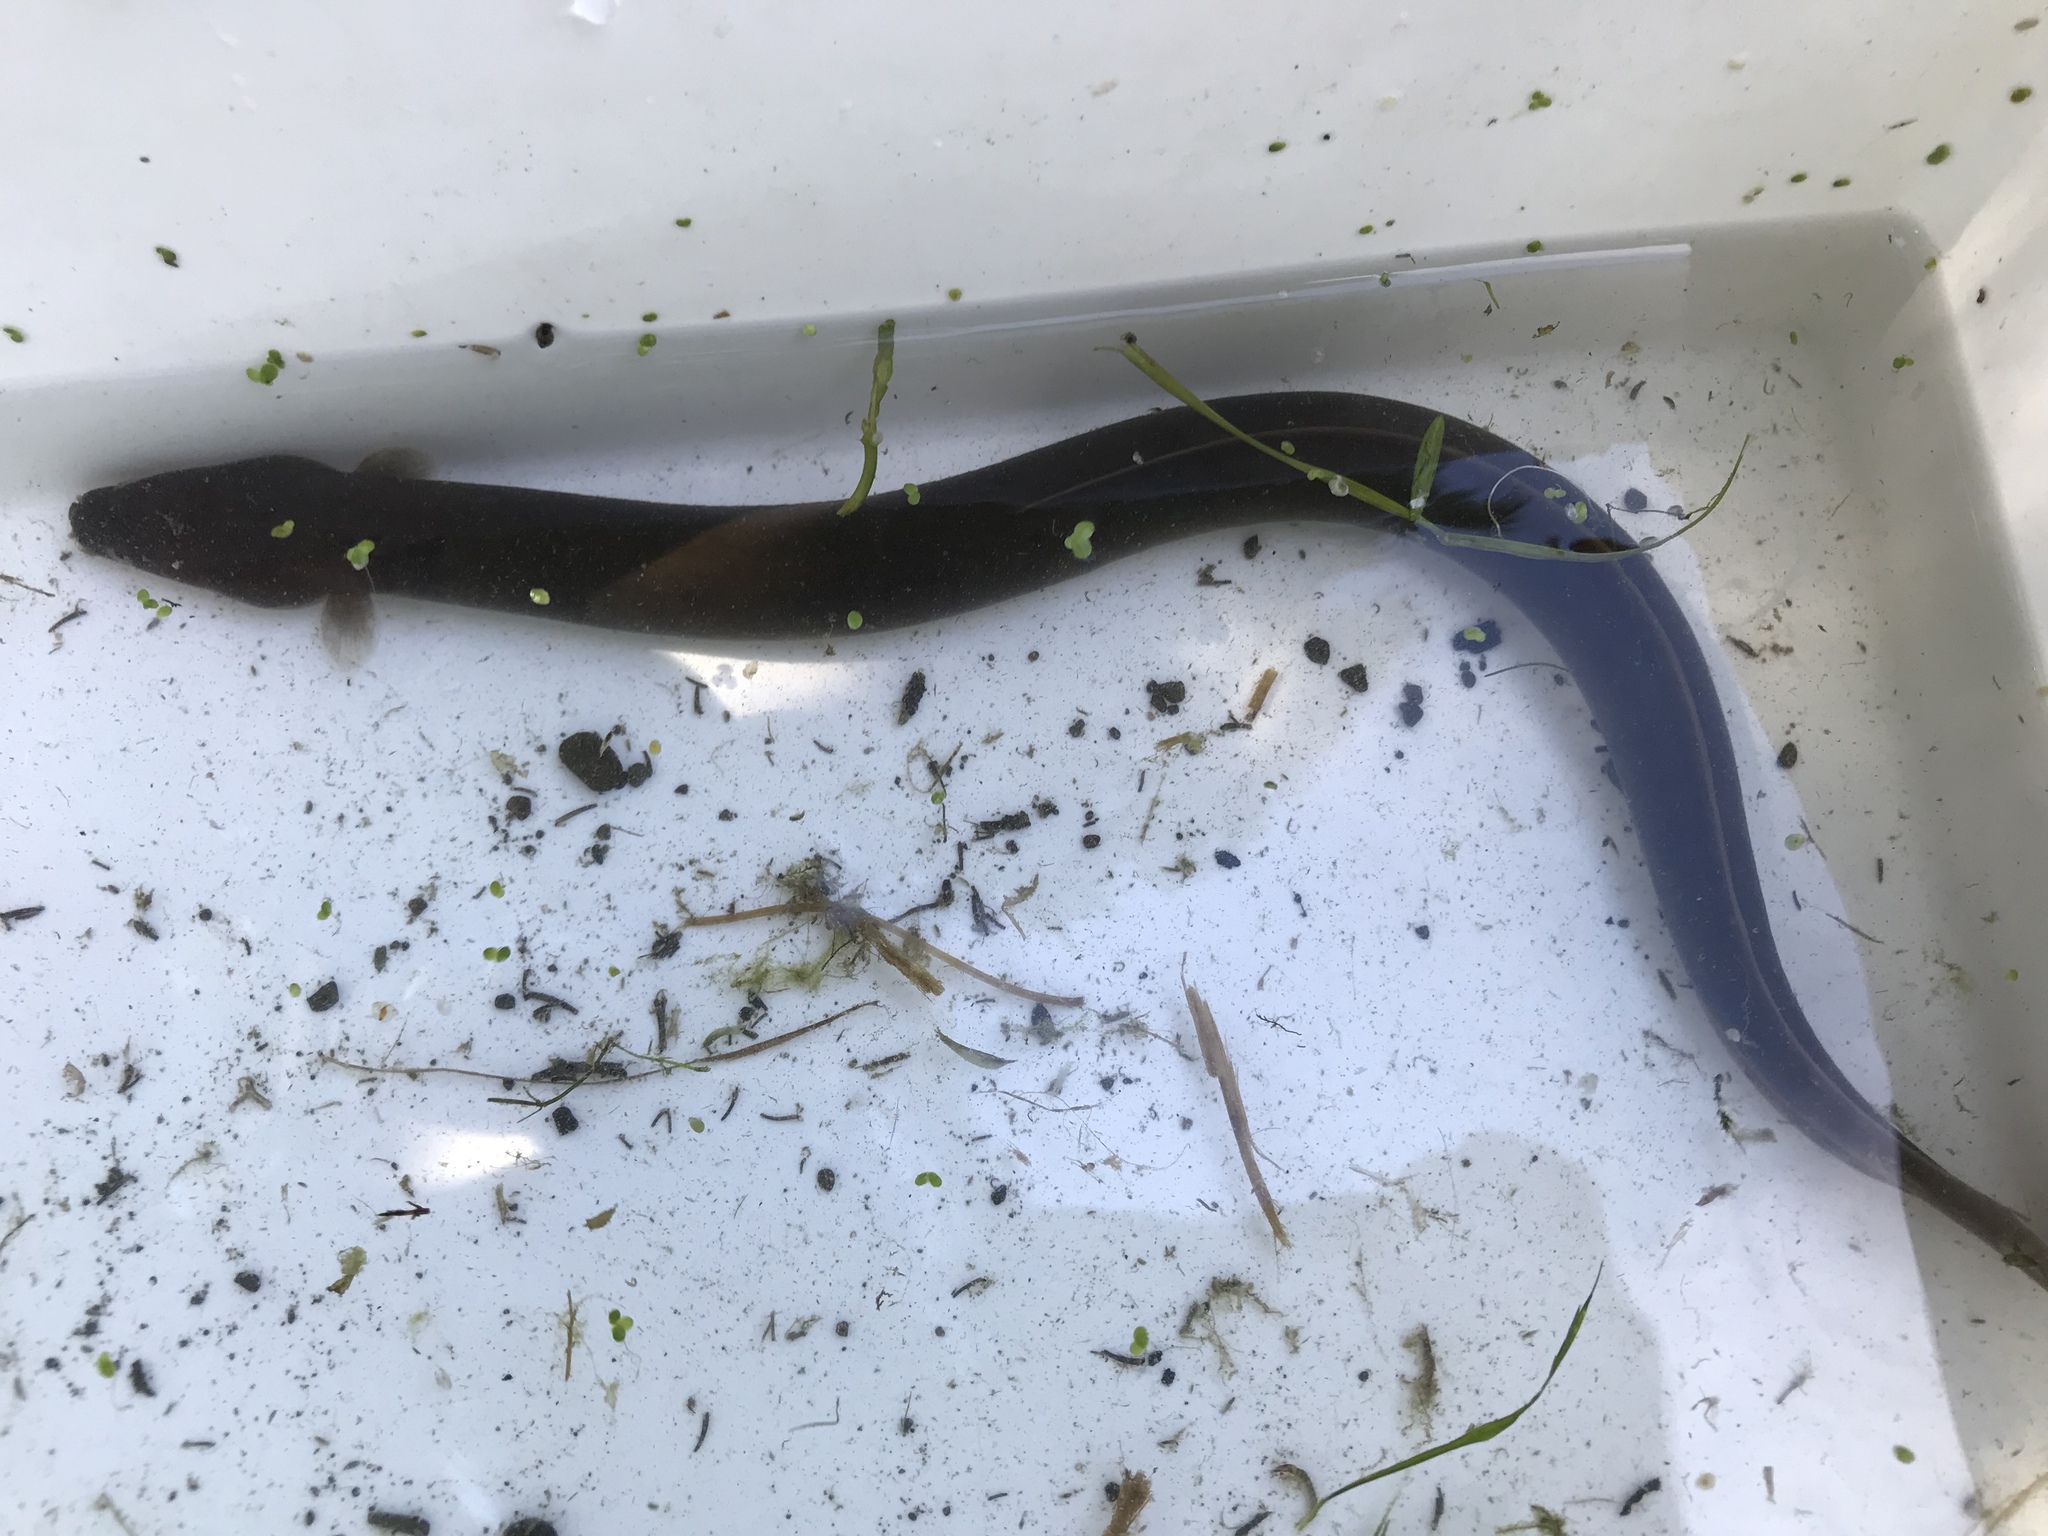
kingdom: Animalia
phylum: Chordata
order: Anguilliformes
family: Anguillidae
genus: Anguilla
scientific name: Anguilla australis
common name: Shortfin eel
